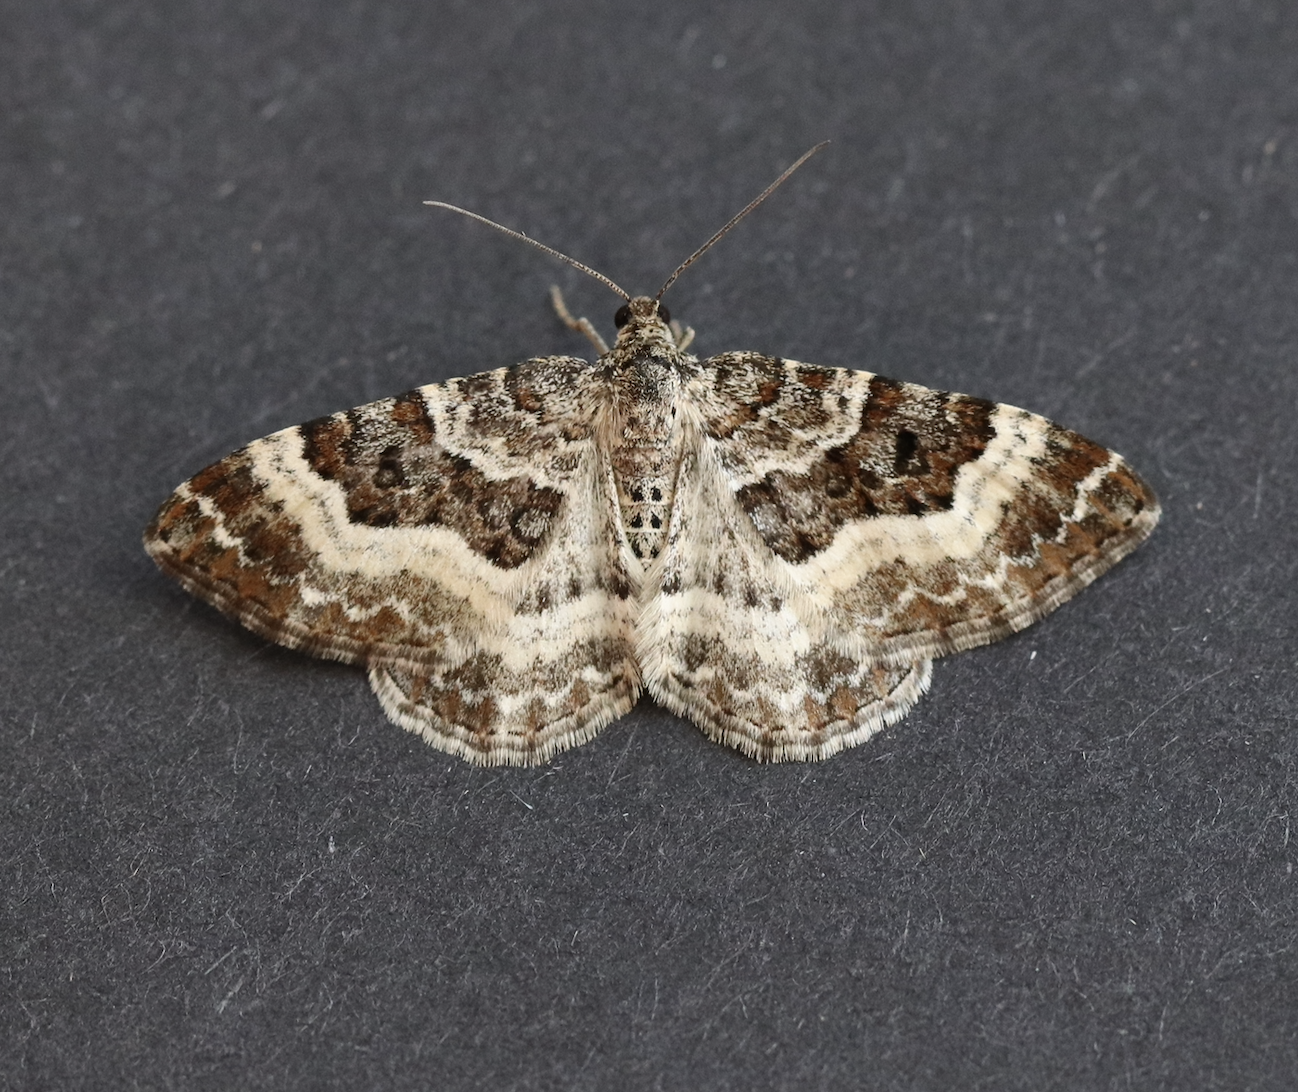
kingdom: Animalia
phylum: Arthropoda
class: Insecta
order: Lepidoptera
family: Geometridae
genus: Epirrhoe
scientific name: Epirrhoe alternata
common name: Common carpet
